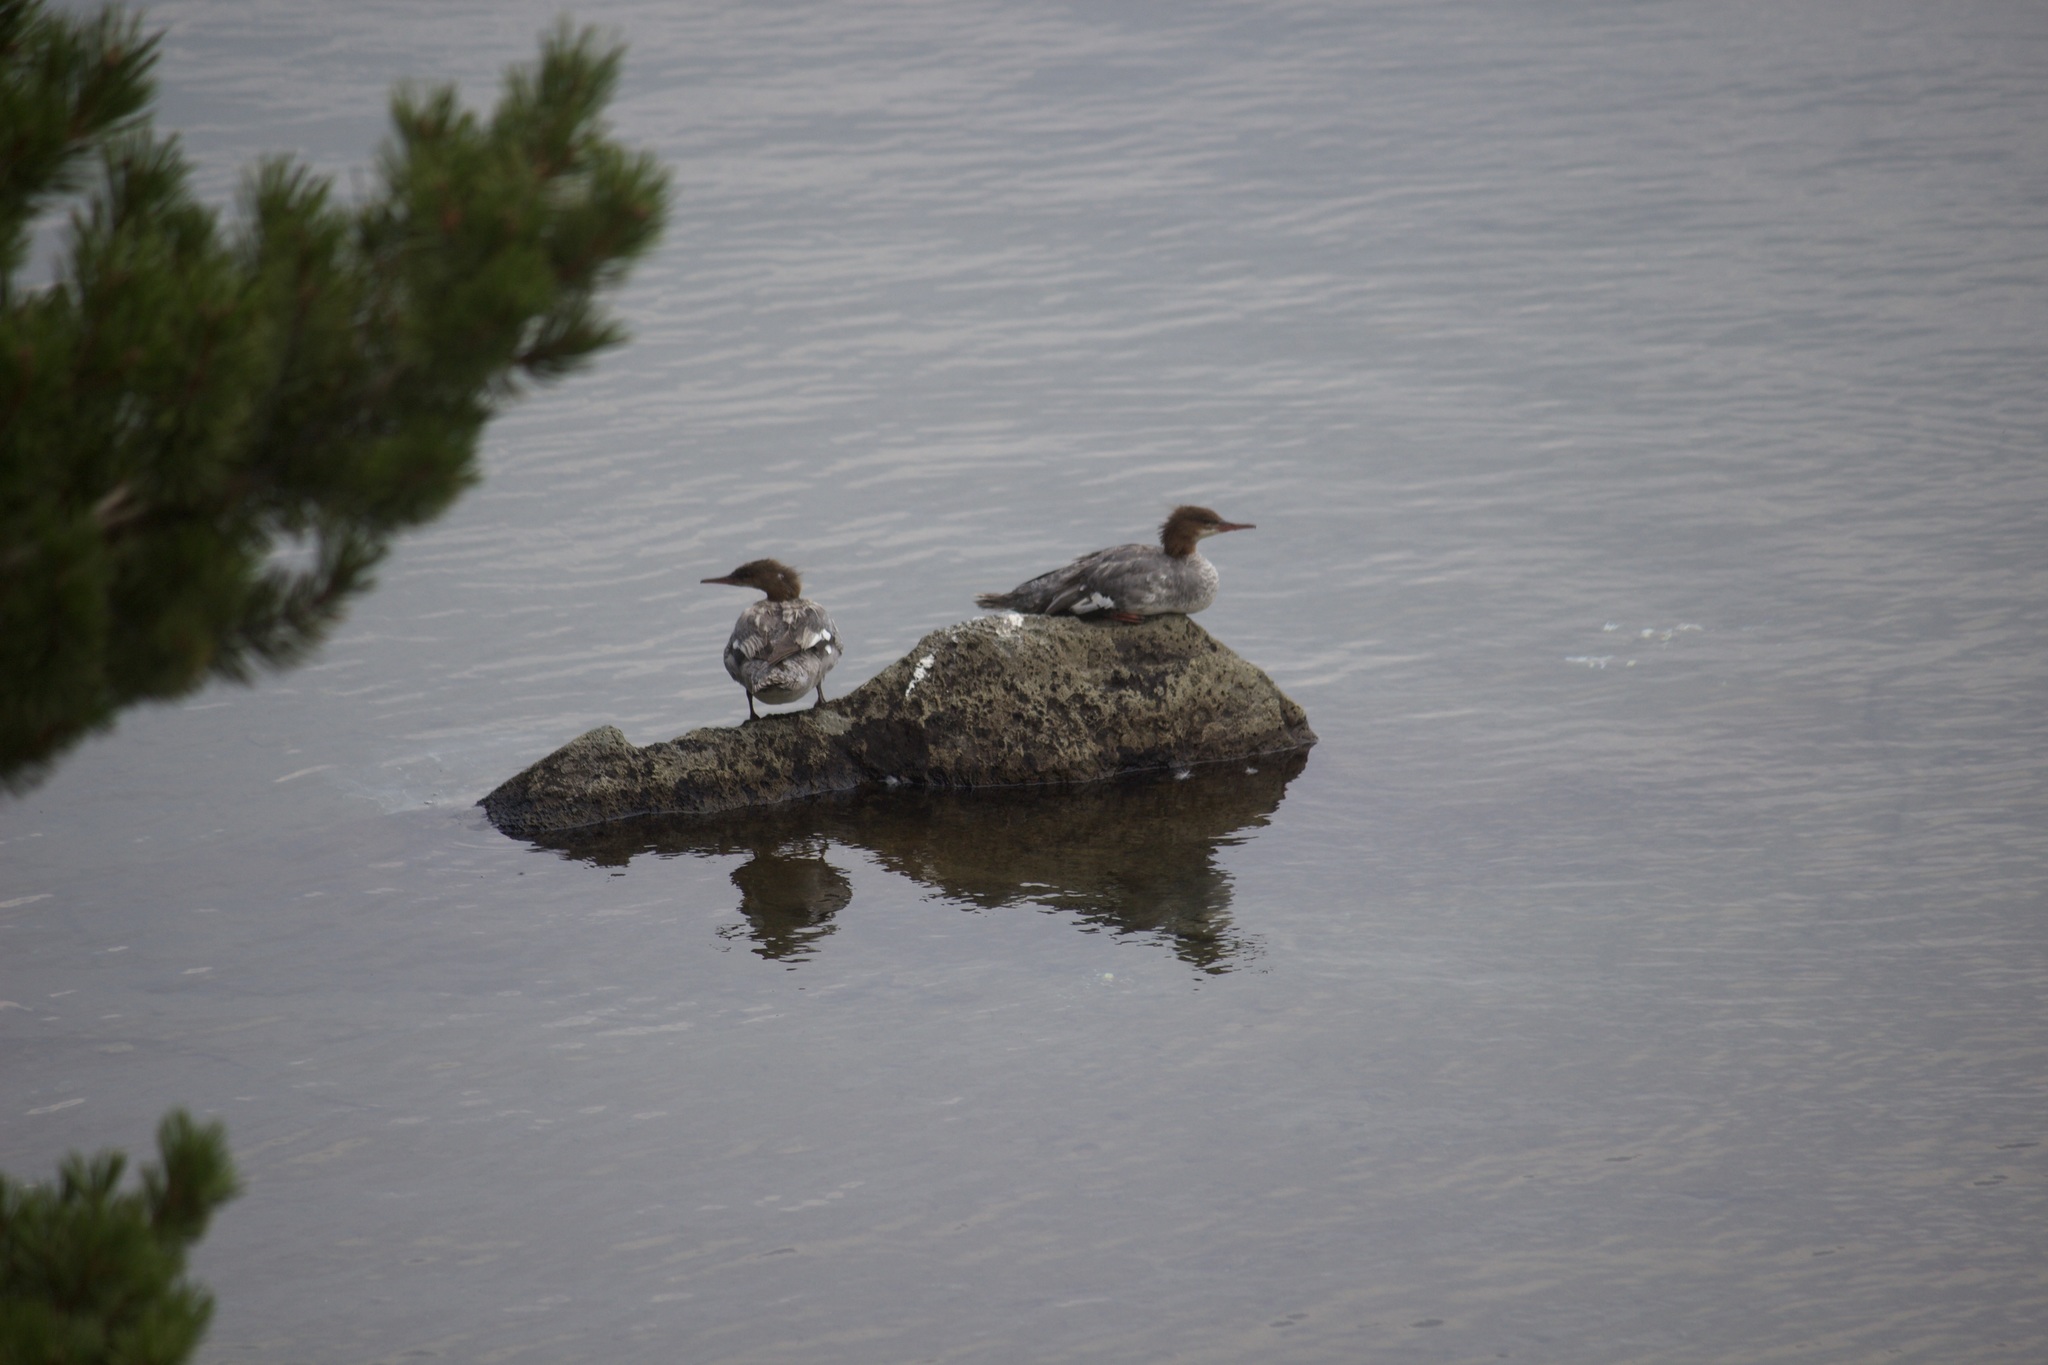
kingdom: Animalia
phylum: Chordata
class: Aves
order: Anseriformes
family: Anatidae
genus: Mergus
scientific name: Mergus merganser
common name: Common merganser
